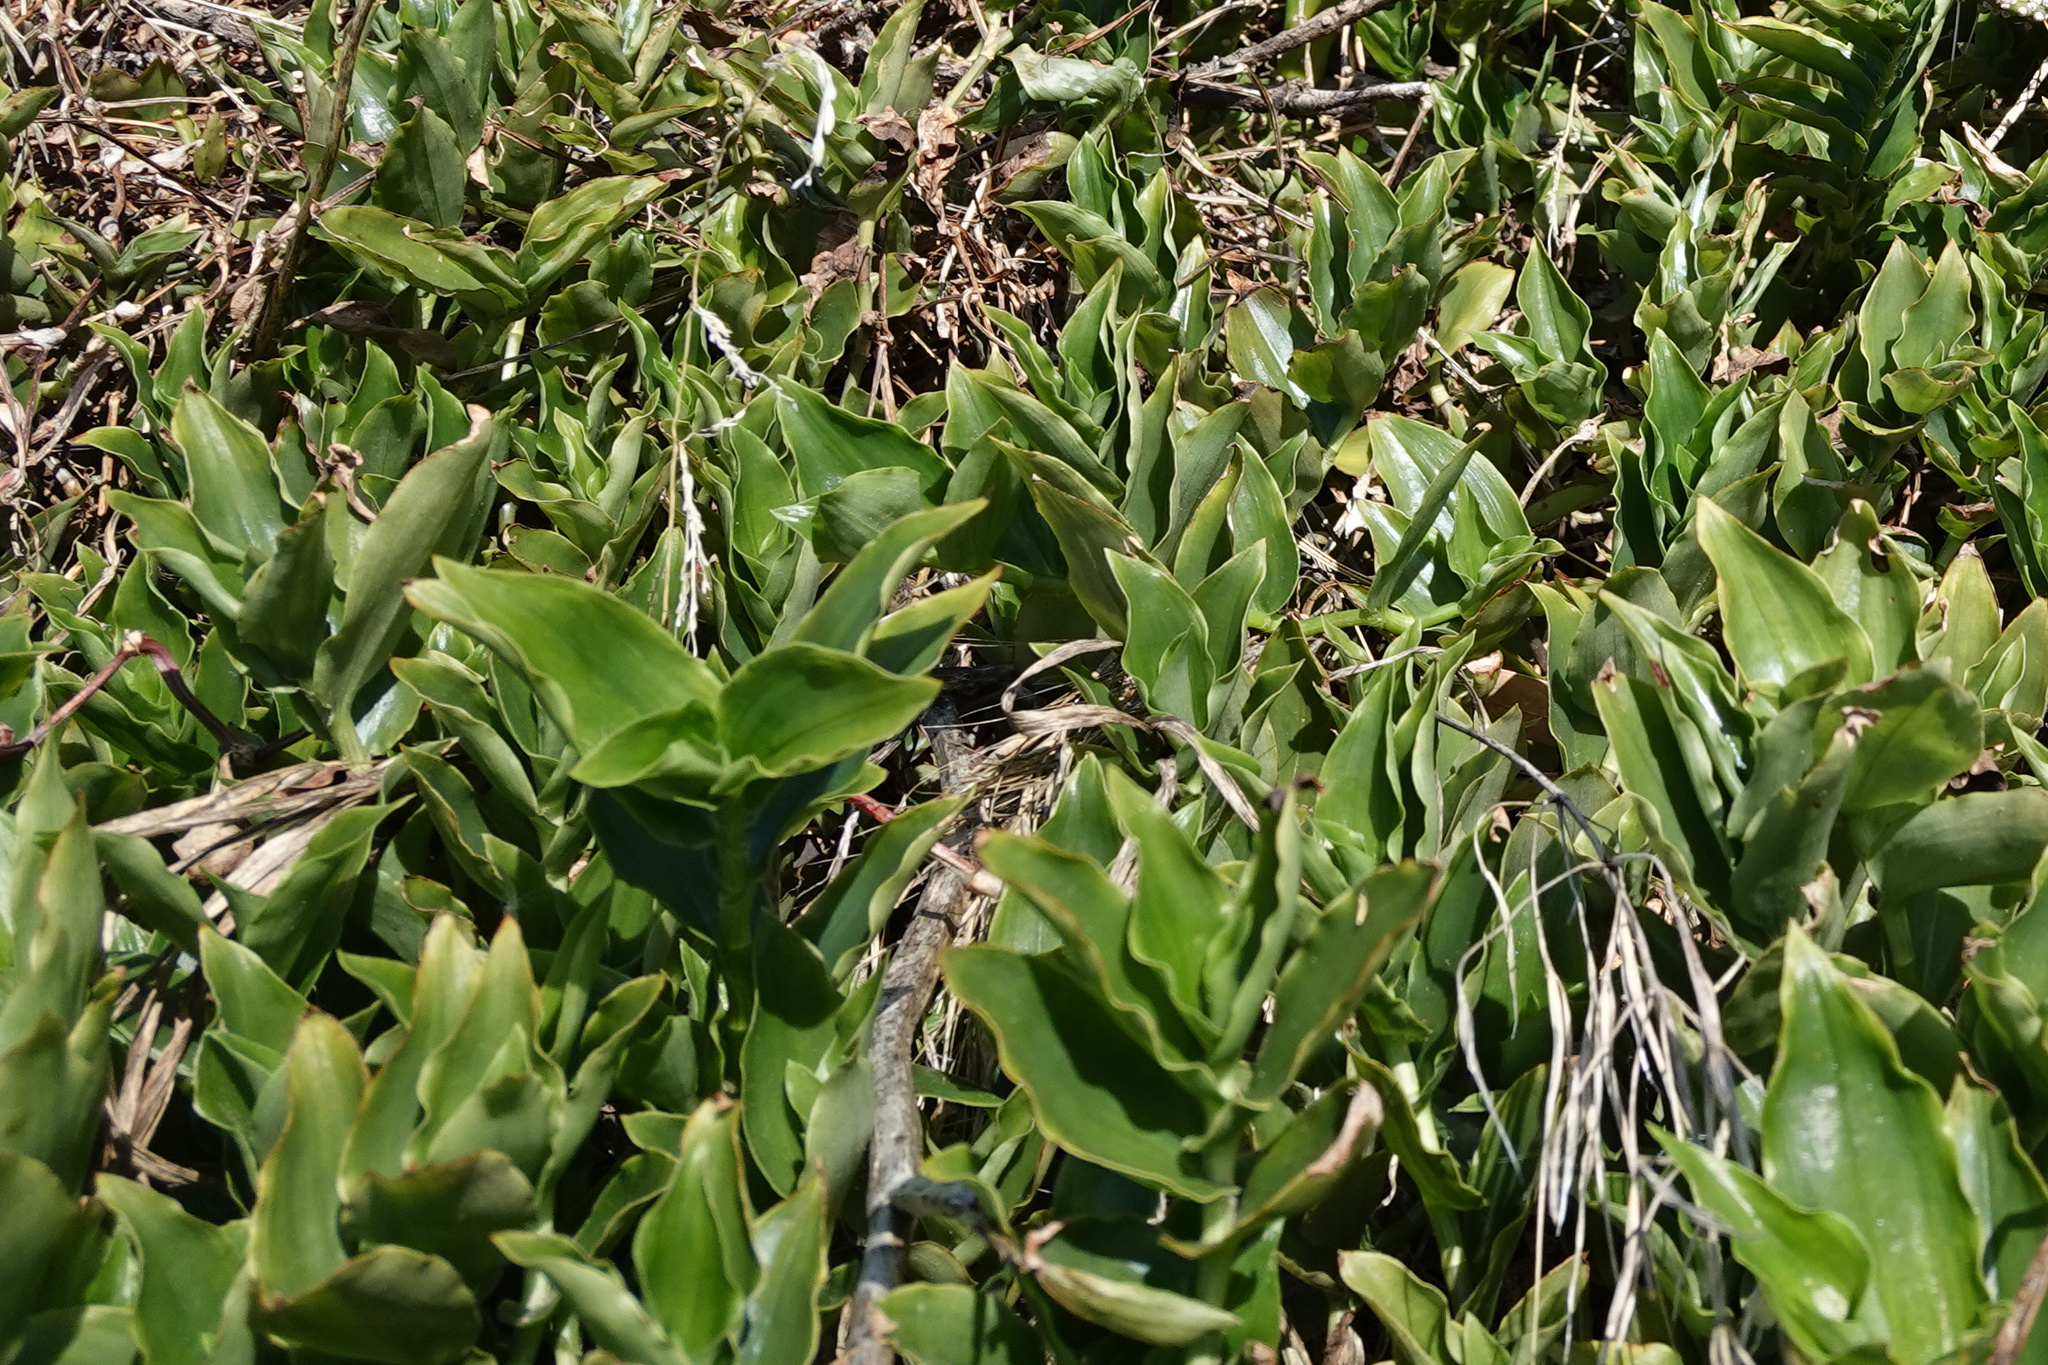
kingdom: Plantae
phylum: Tracheophyta
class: Liliopsida
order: Commelinales
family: Commelinaceae
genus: Tradescantia
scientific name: Tradescantia fluminensis
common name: Wandering-jew
